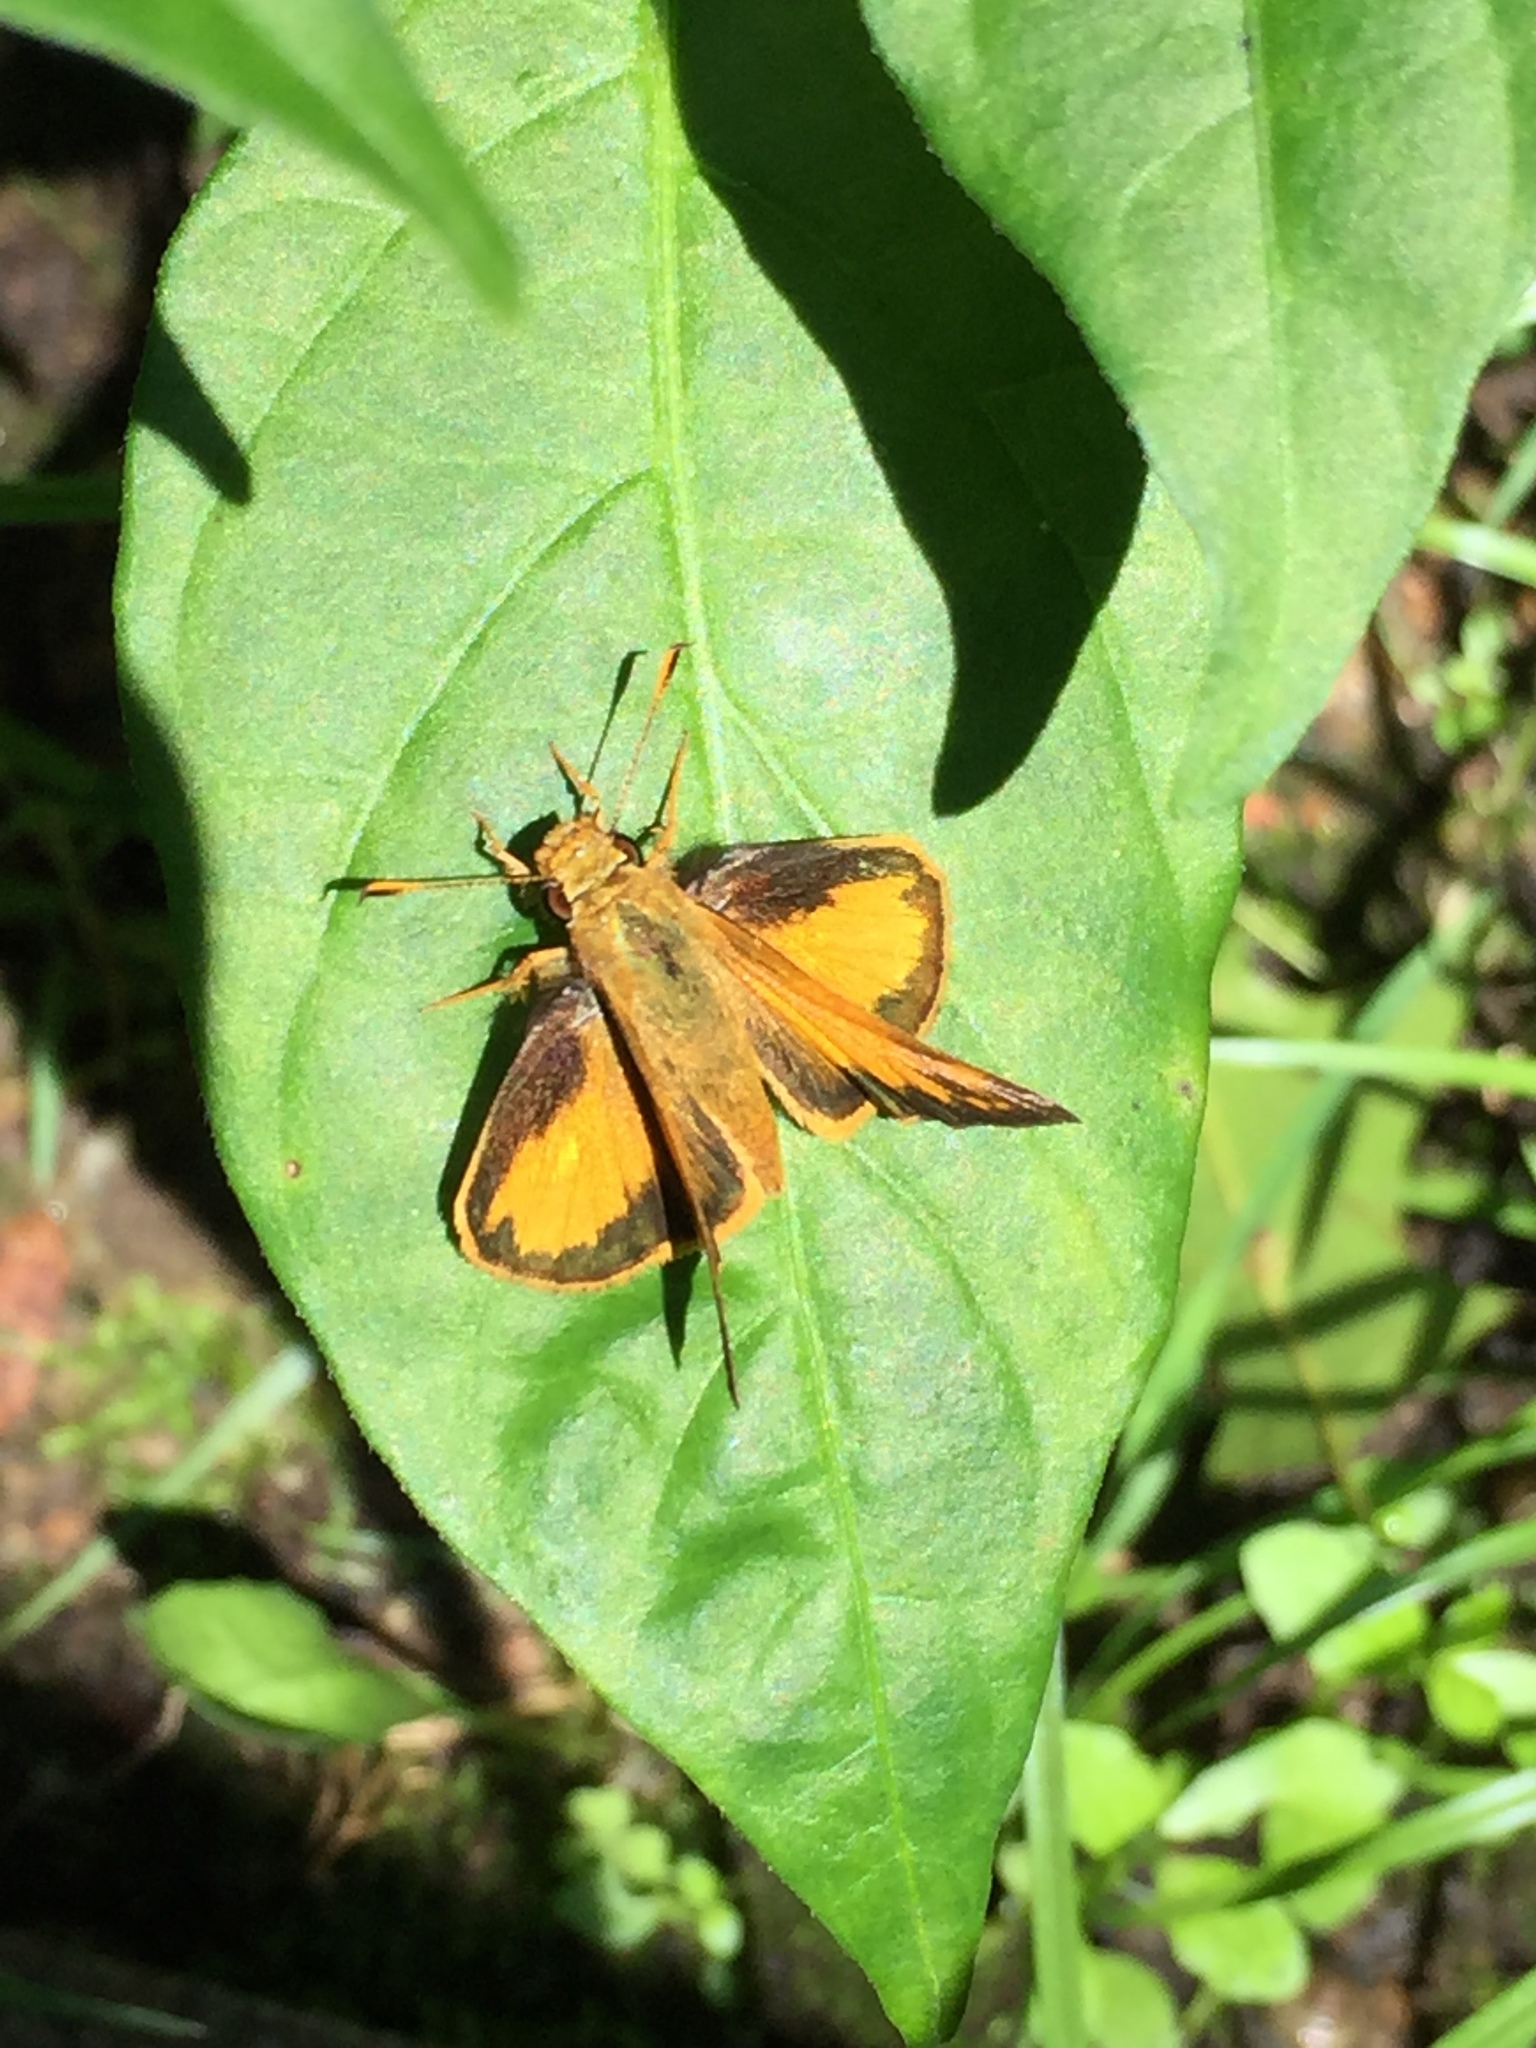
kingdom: Animalia
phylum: Arthropoda
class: Insecta
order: Lepidoptera
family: Hesperiidae
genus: Lon
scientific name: Lon zabulon
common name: Zabulon skipper
